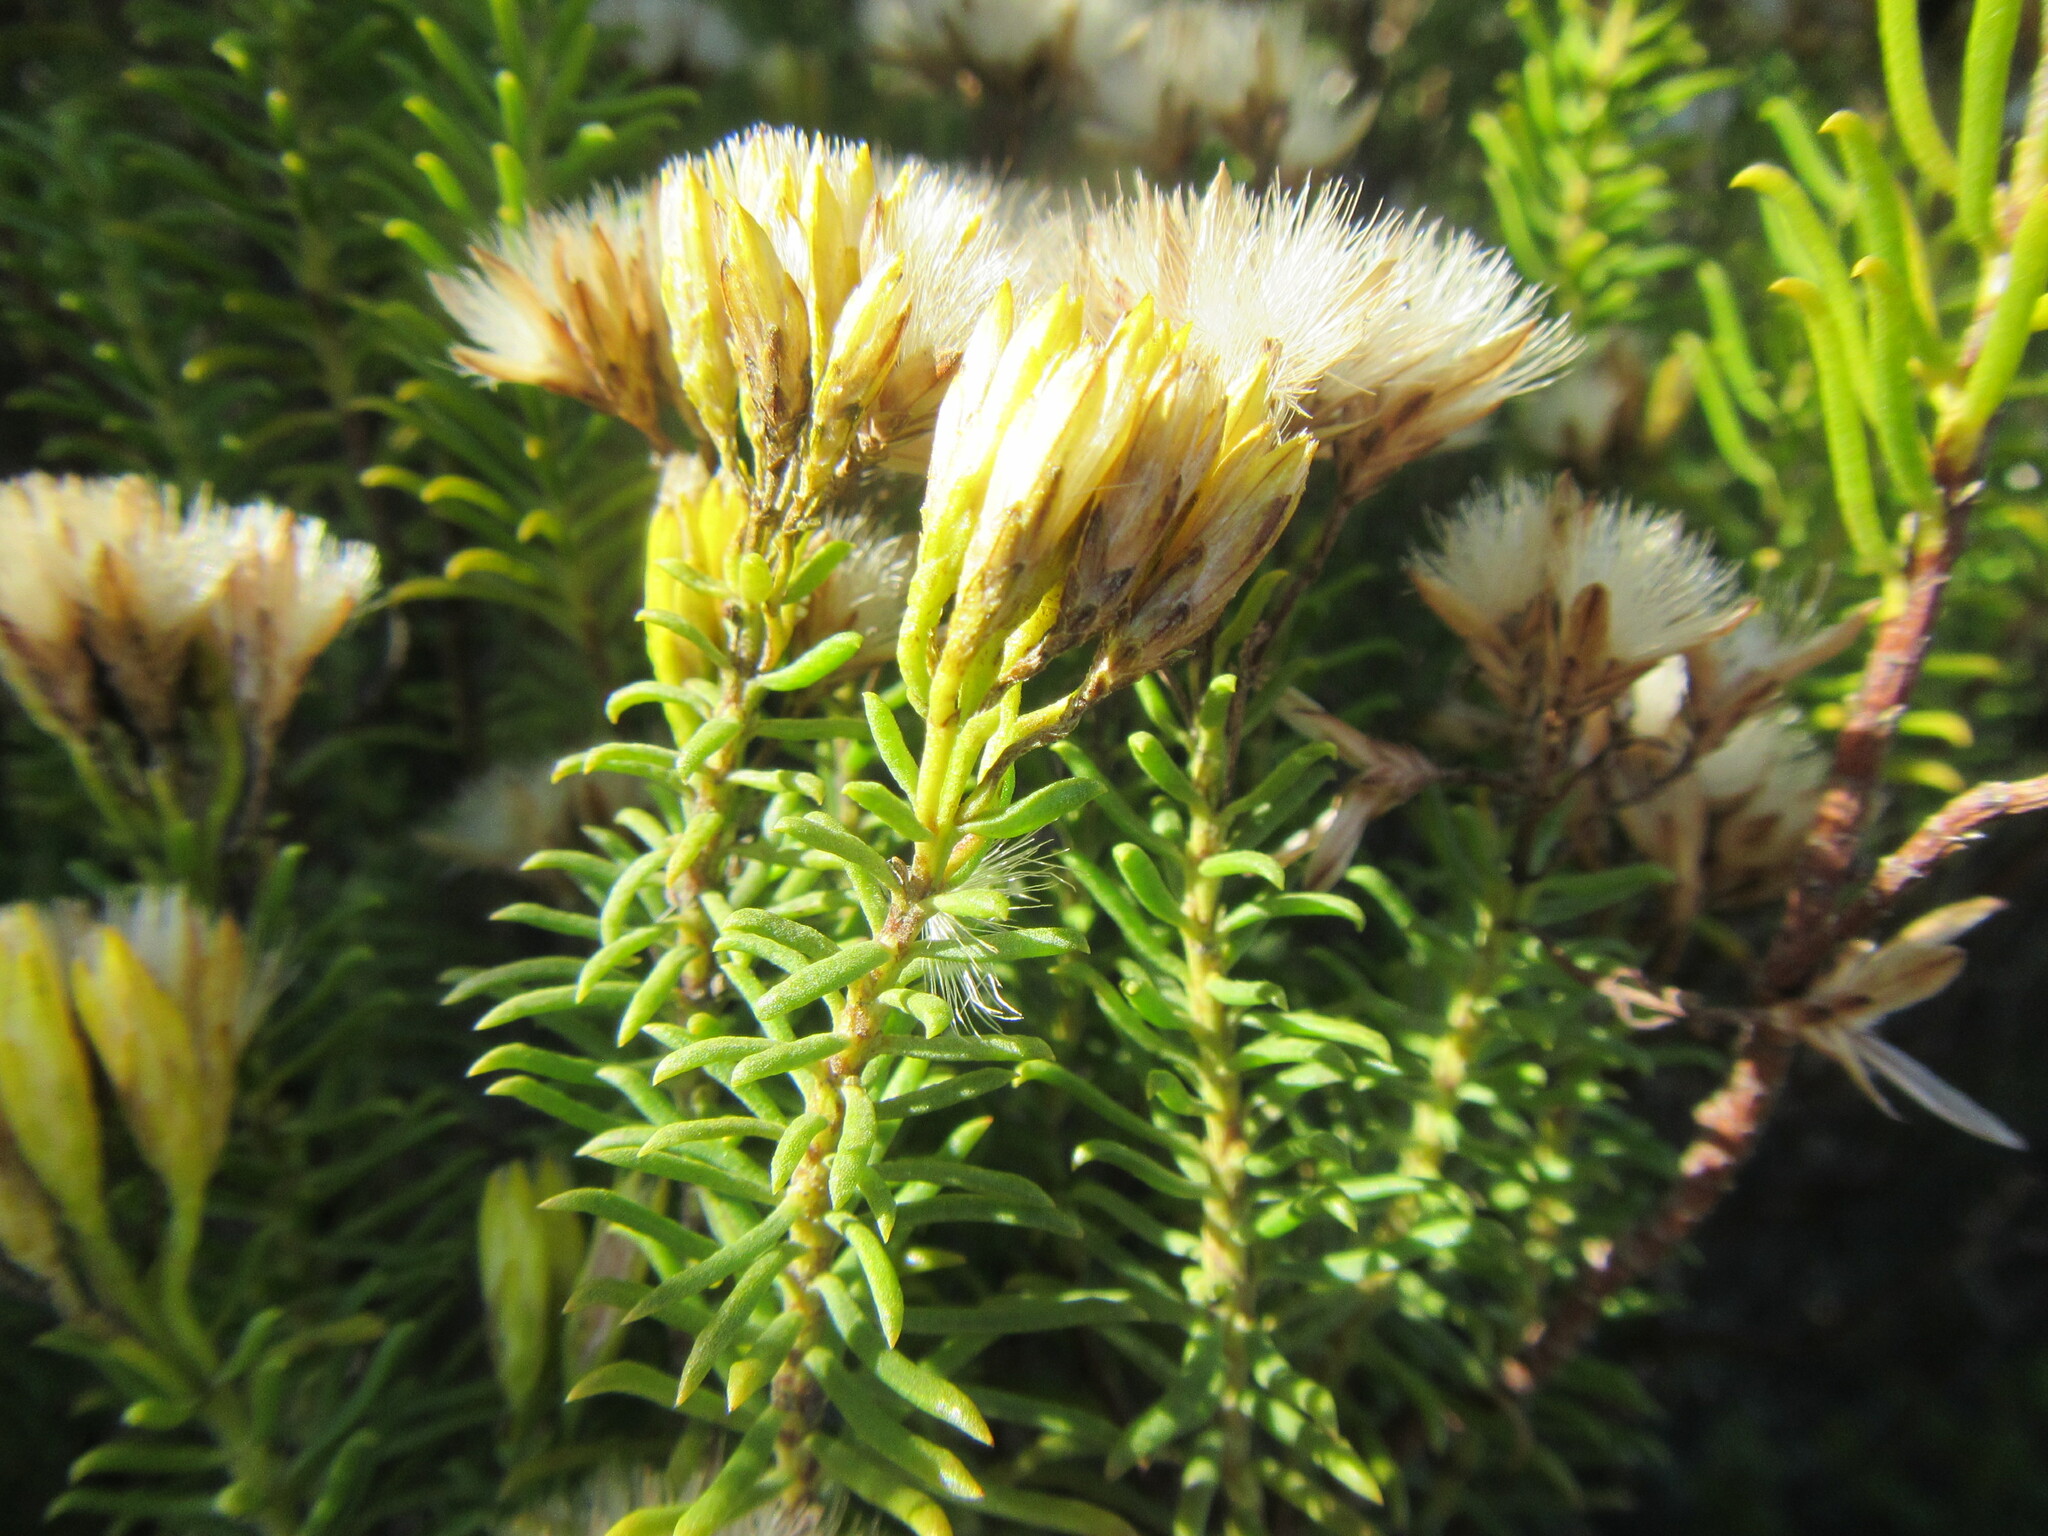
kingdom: Plantae
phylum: Tracheophyta
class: Magnoliopsida
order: Asterales
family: Asteraceae
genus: Pteronia
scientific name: Pteronia uncinata
